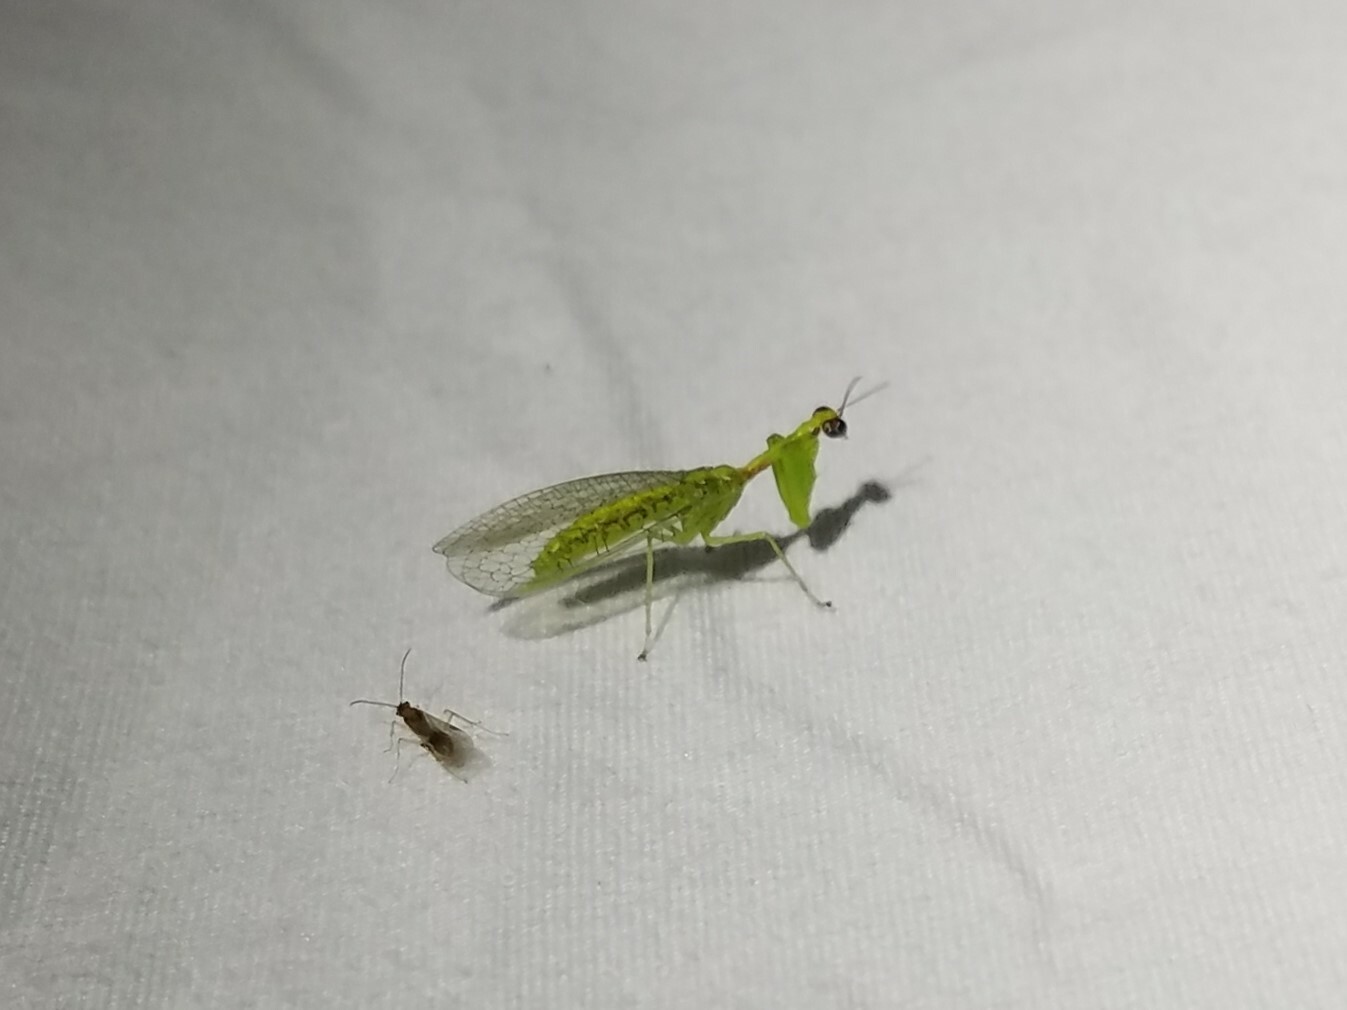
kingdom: Animalia
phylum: Arthropoda
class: Insecta
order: Neuroptera
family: Mantispidae
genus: Zeugomantispa
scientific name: Zeugomantispa minuta
